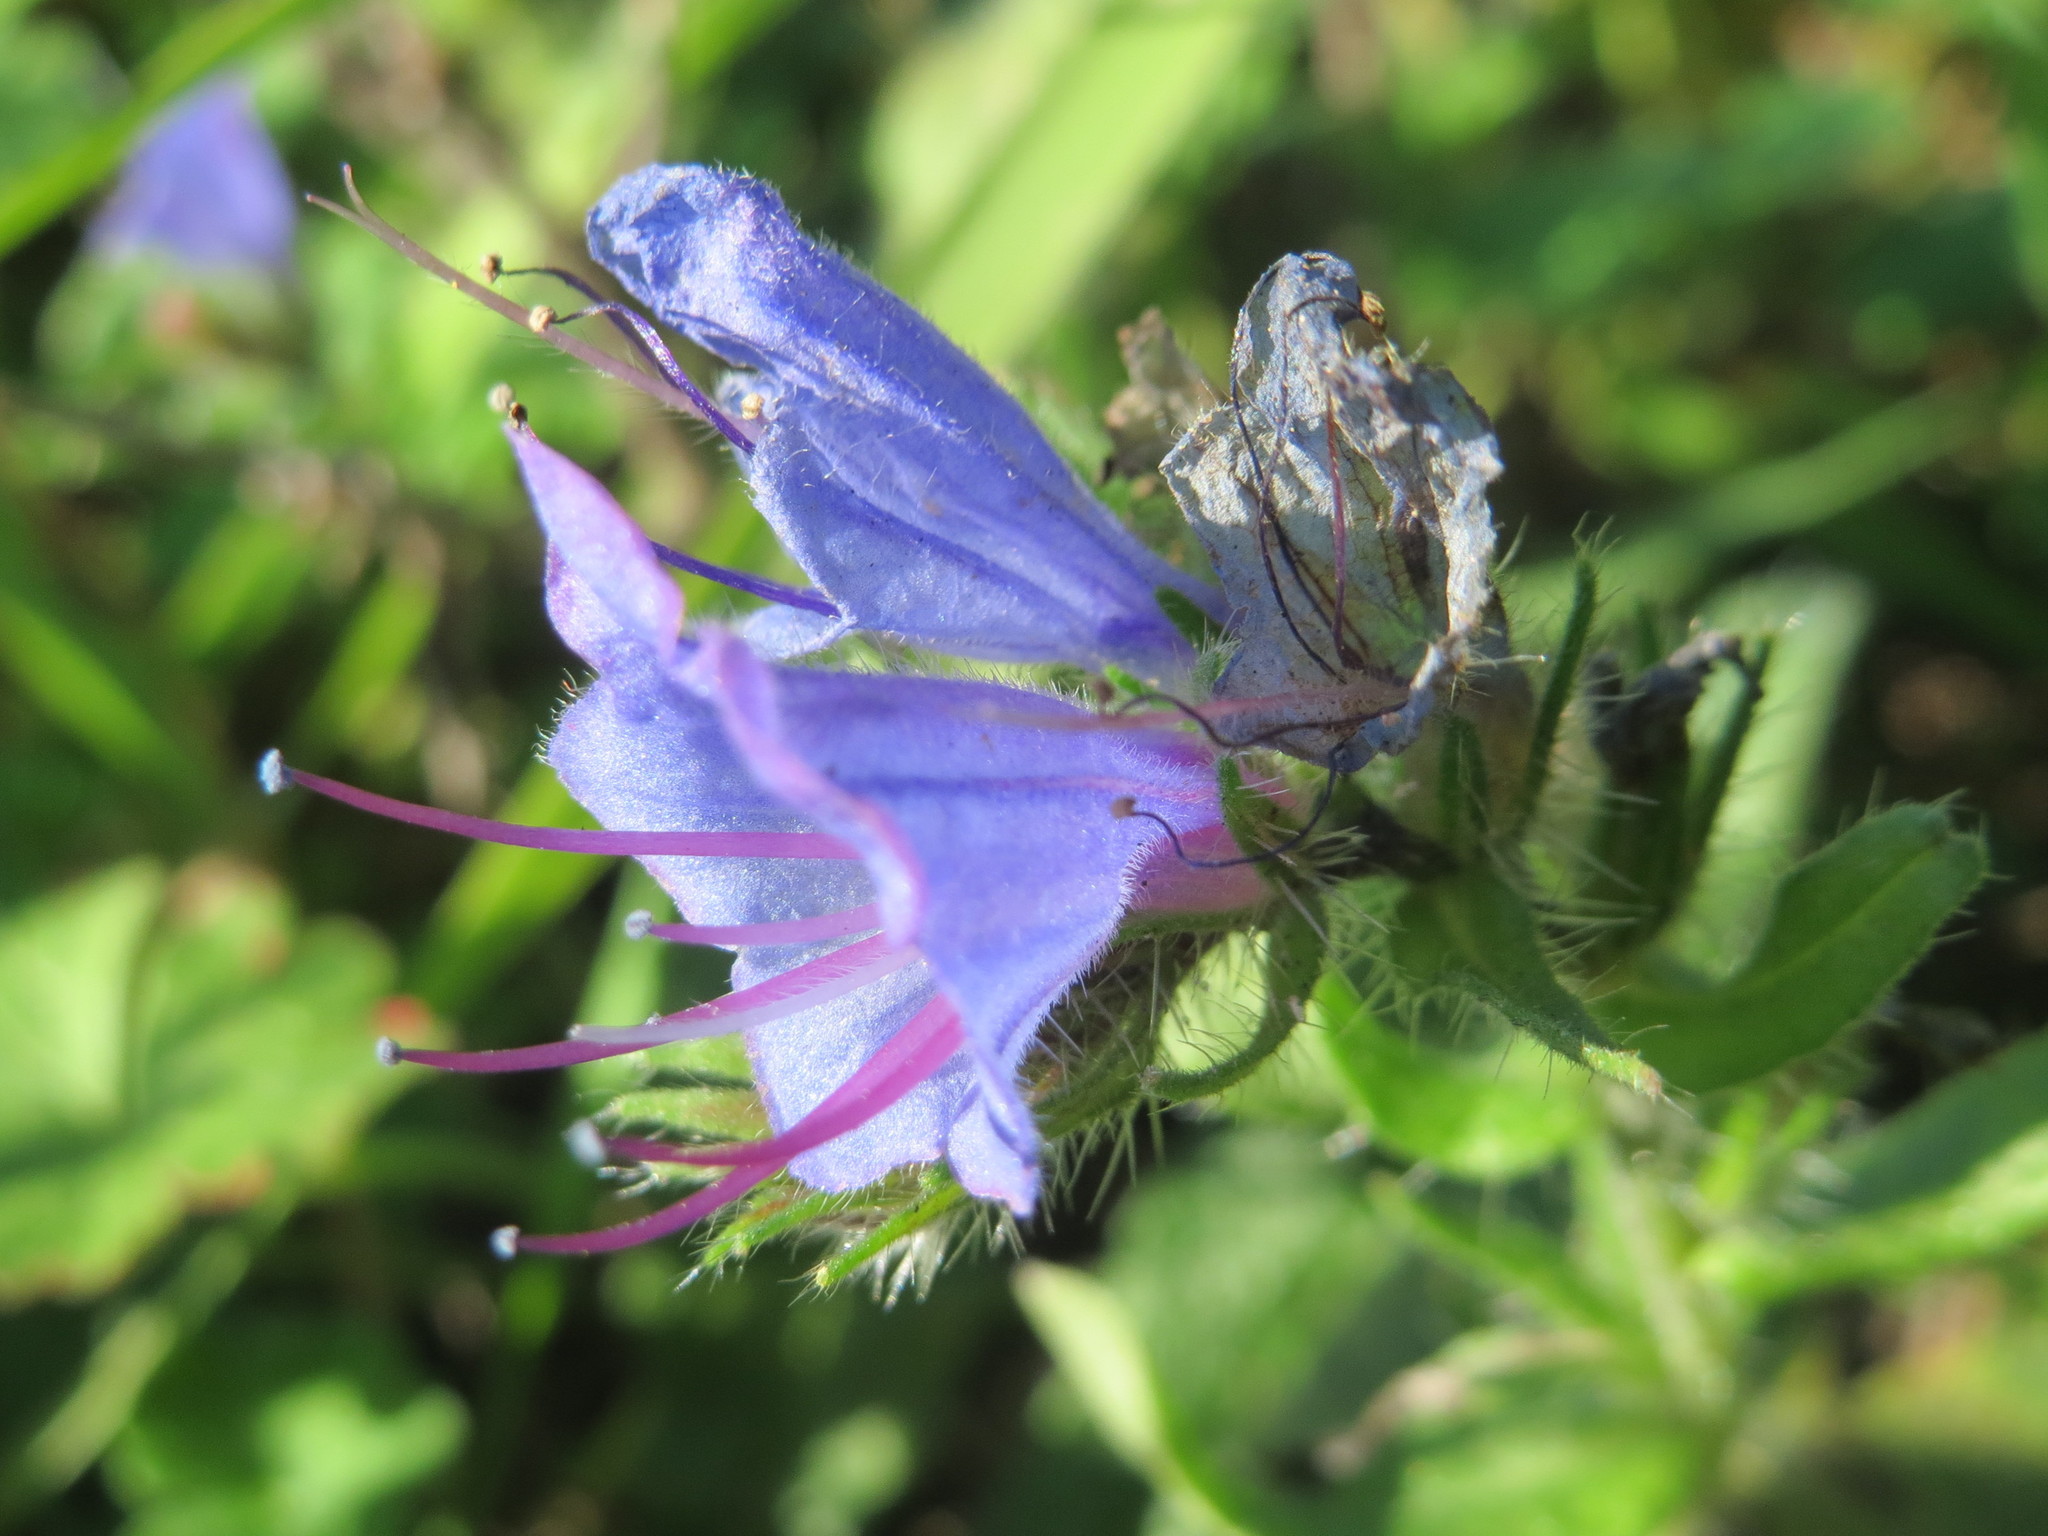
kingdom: Plantae
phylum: Tracheophyta
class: Magnoliopsida
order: Boraginales
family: Boraginaceae
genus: Echium
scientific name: Echium vulgare
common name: Common viper's bugloss
